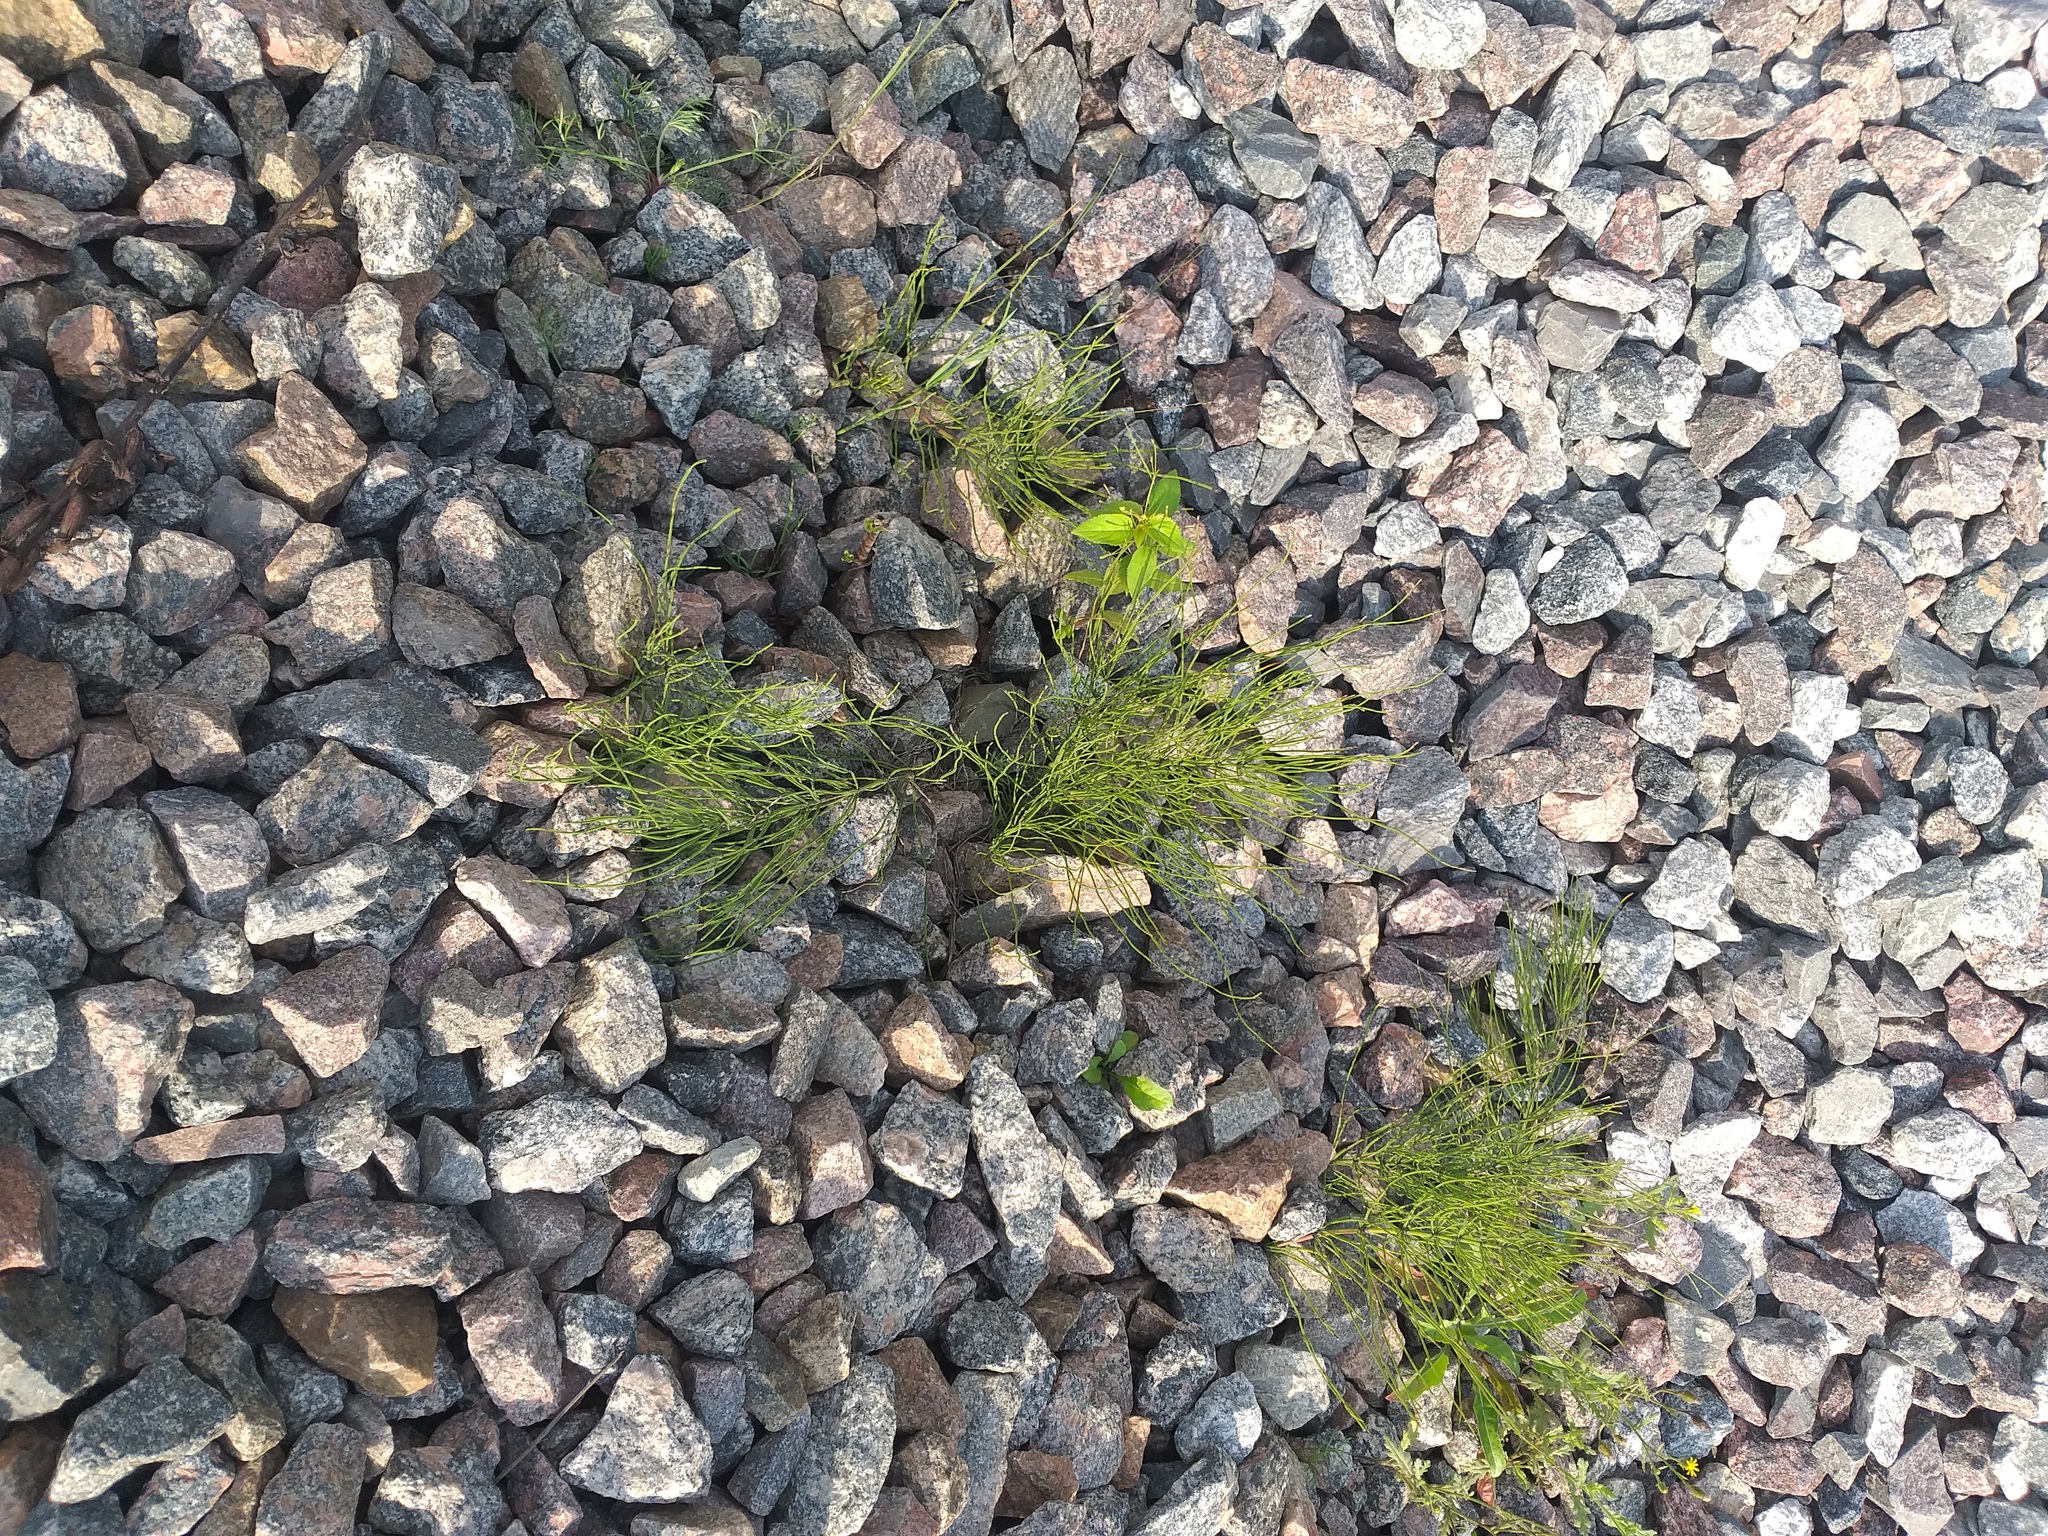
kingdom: Plantae
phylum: Tracheophyta
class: Polypodiopsida
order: Equisetales
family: Equisetaceae
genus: Equisetum
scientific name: Equisetum arvense
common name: Field horsetail
